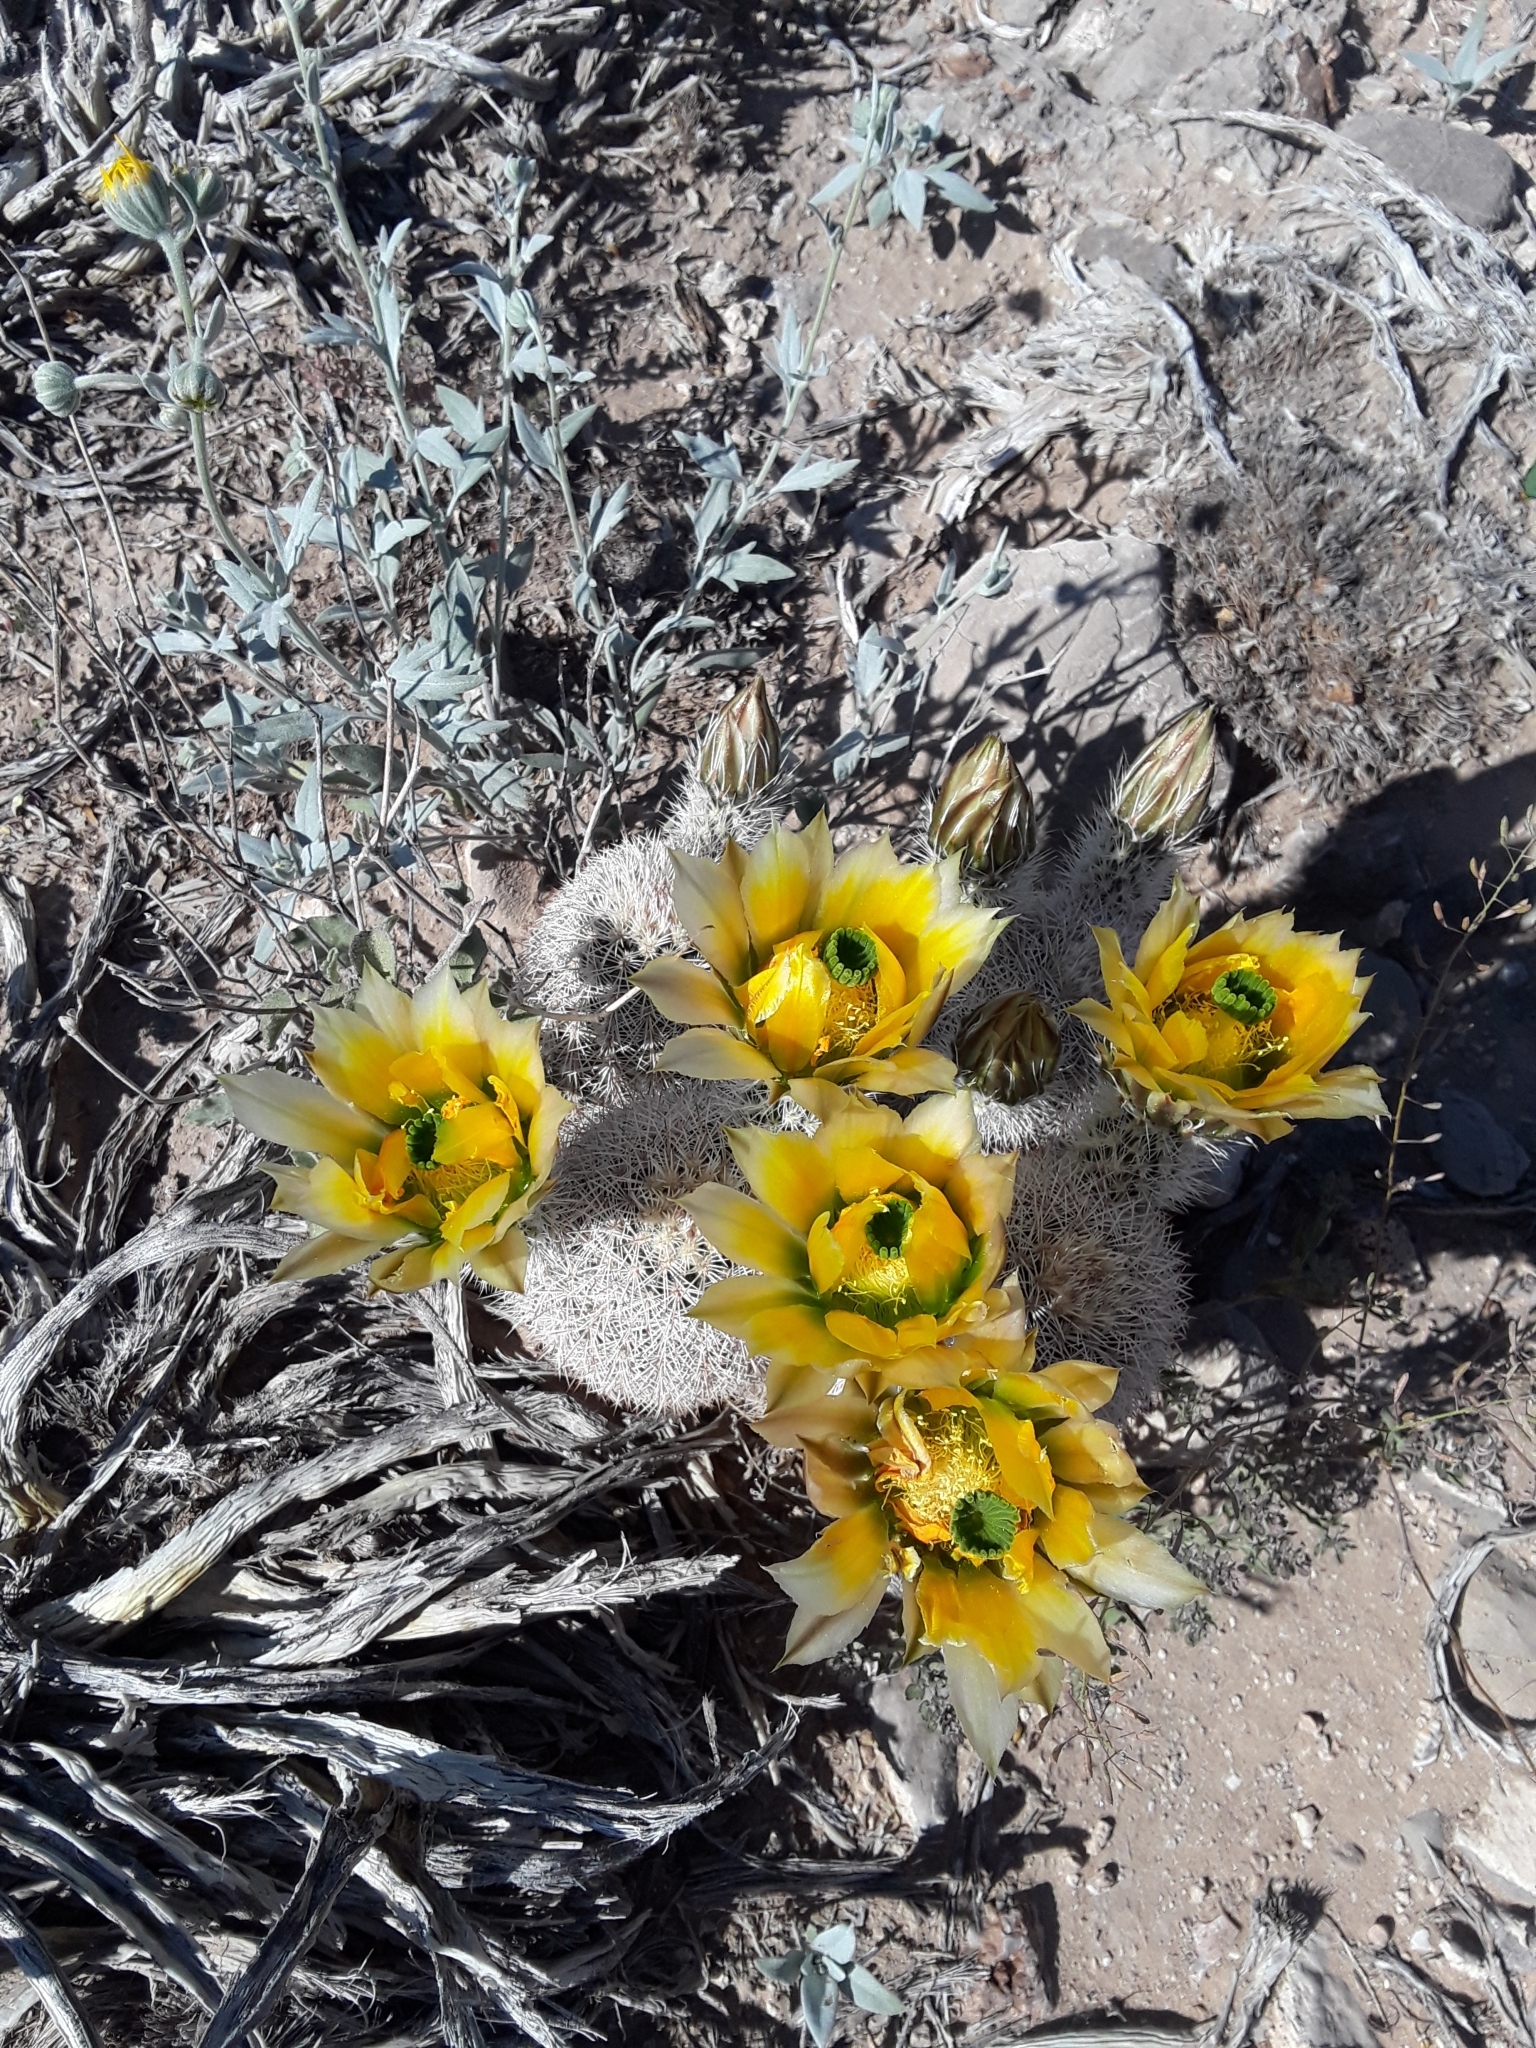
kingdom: Plantae
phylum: Tracheophyta
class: Magnoliopsida
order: Caryophyllales
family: Cactaceae
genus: Echinocereus
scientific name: Echinocereus dasyacanthus
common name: Spiny hedgehog cactus
